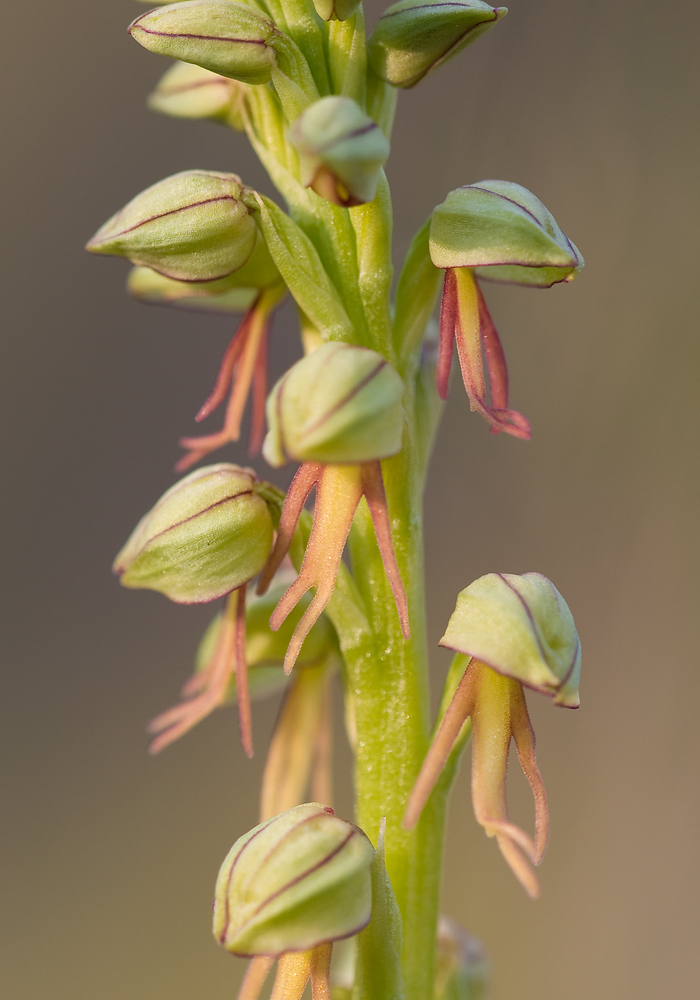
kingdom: Plantae
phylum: Tracheophyta
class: Liliopsida
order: Asparagales
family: Orchidaceae
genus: Orchis
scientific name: Orchis anthropophora
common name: Man orchid
